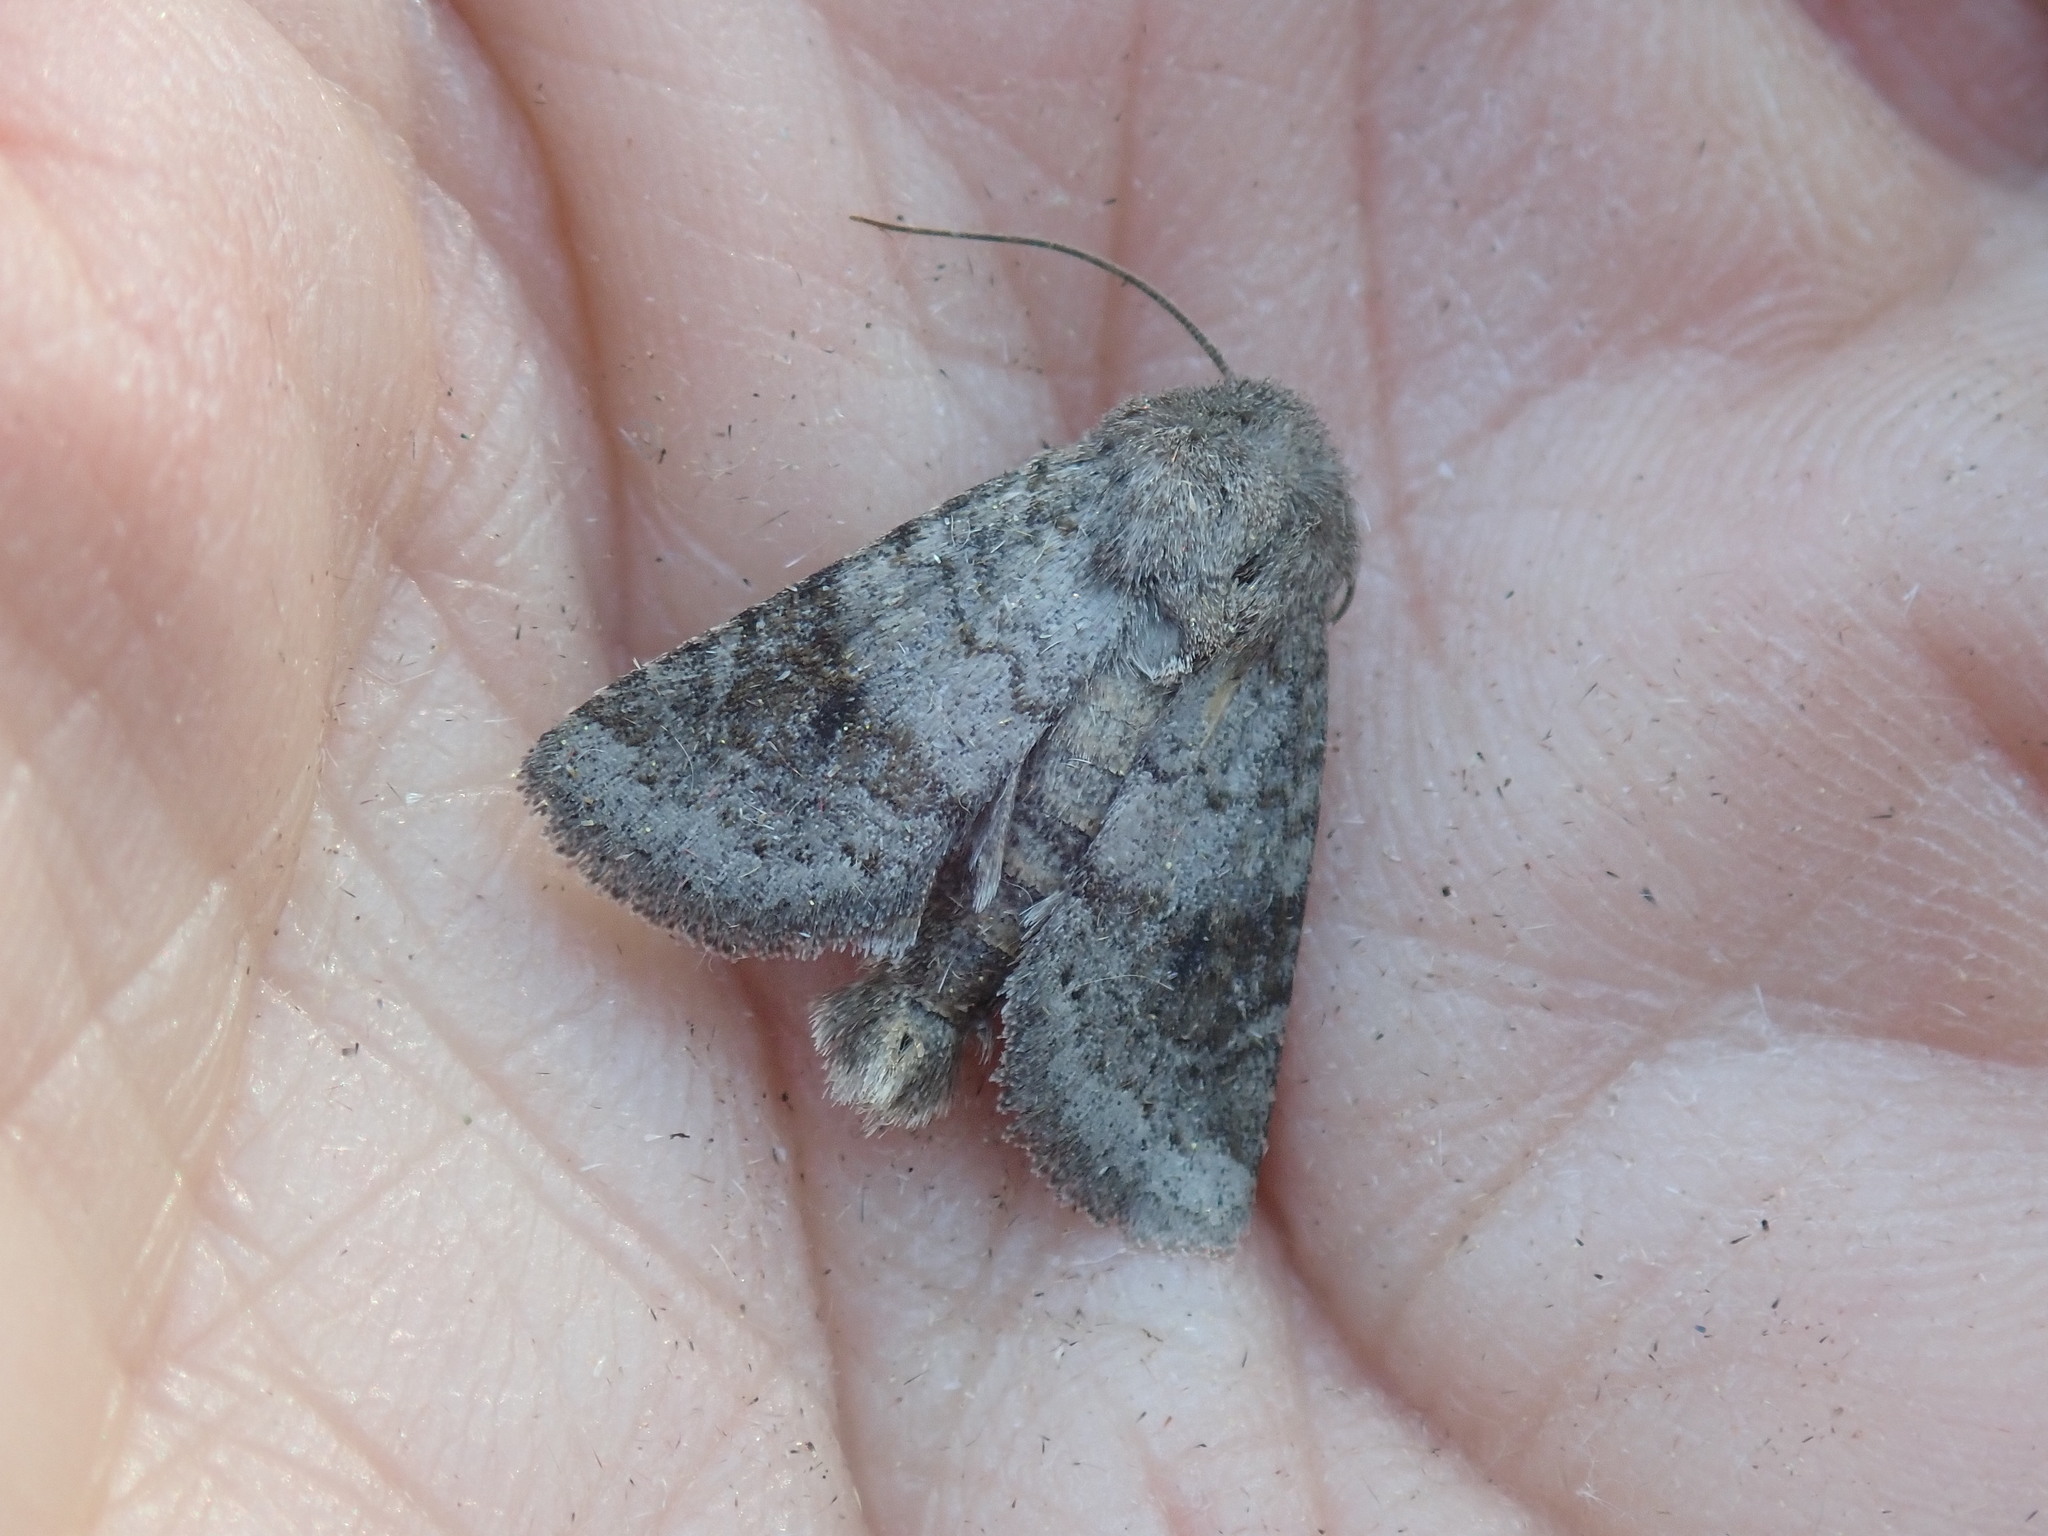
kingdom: Animalia
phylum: Arthropoda
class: Insecta
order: Lepidoptera
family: Noctuidae
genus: Ulolonche
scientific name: Ulolonche modesta
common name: Modest quaker
